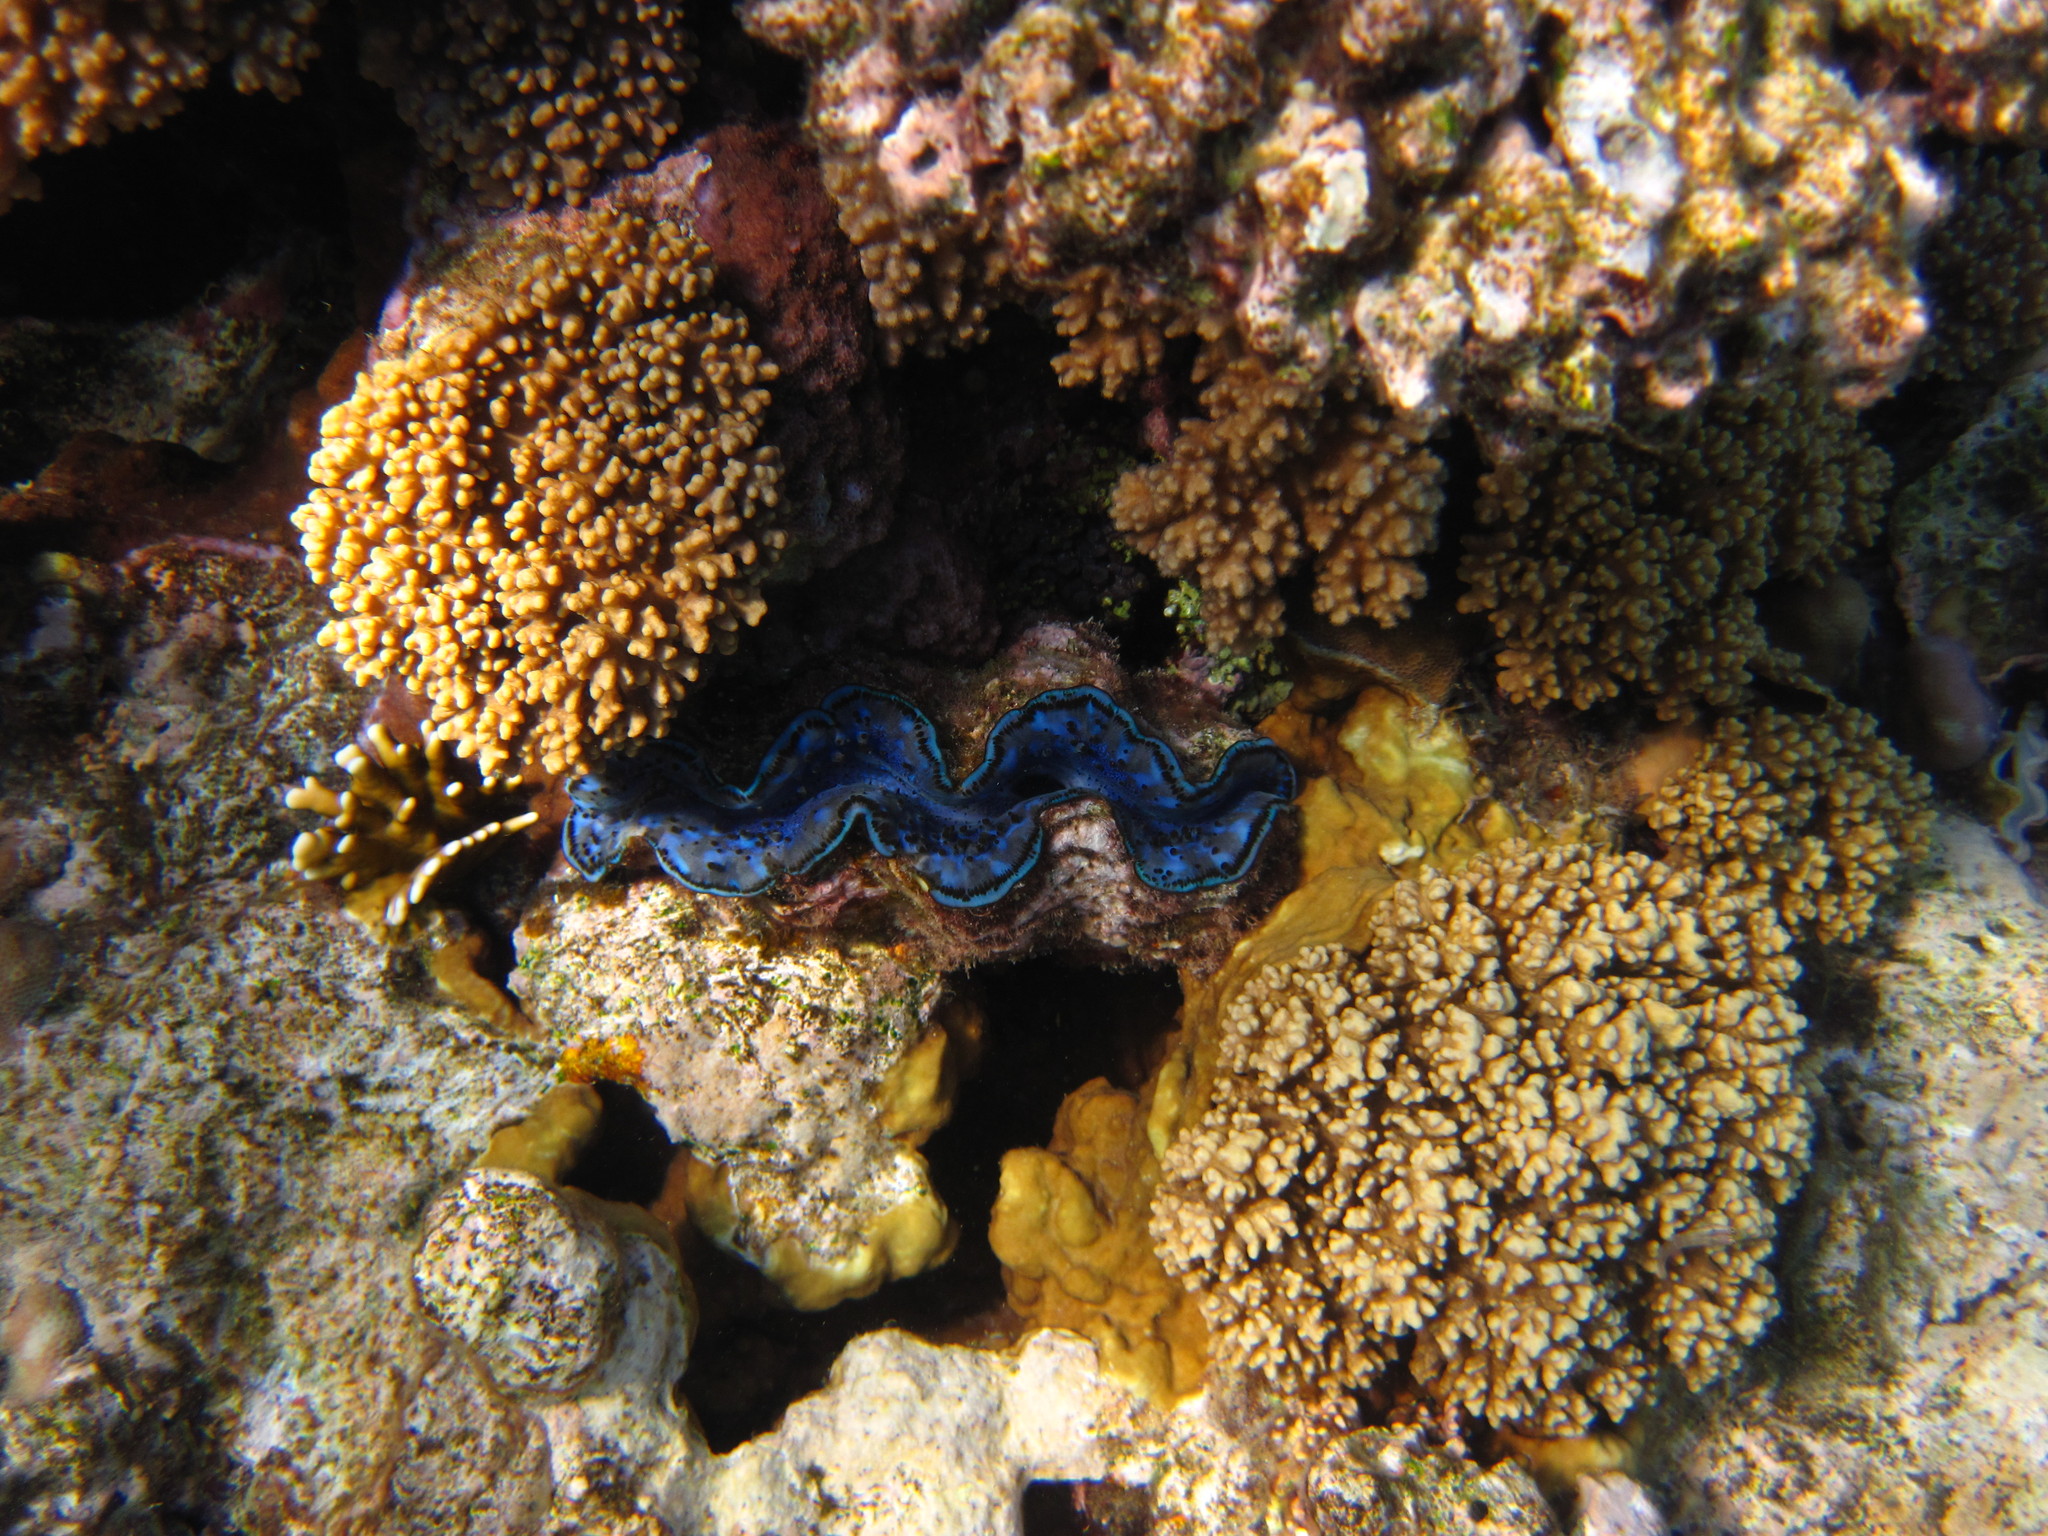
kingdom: Animalia
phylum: Mollusca
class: Bivalvia
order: Cardiida
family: Cardiidae
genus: Tridacna
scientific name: Tridacna maxima
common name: Small giant clam
